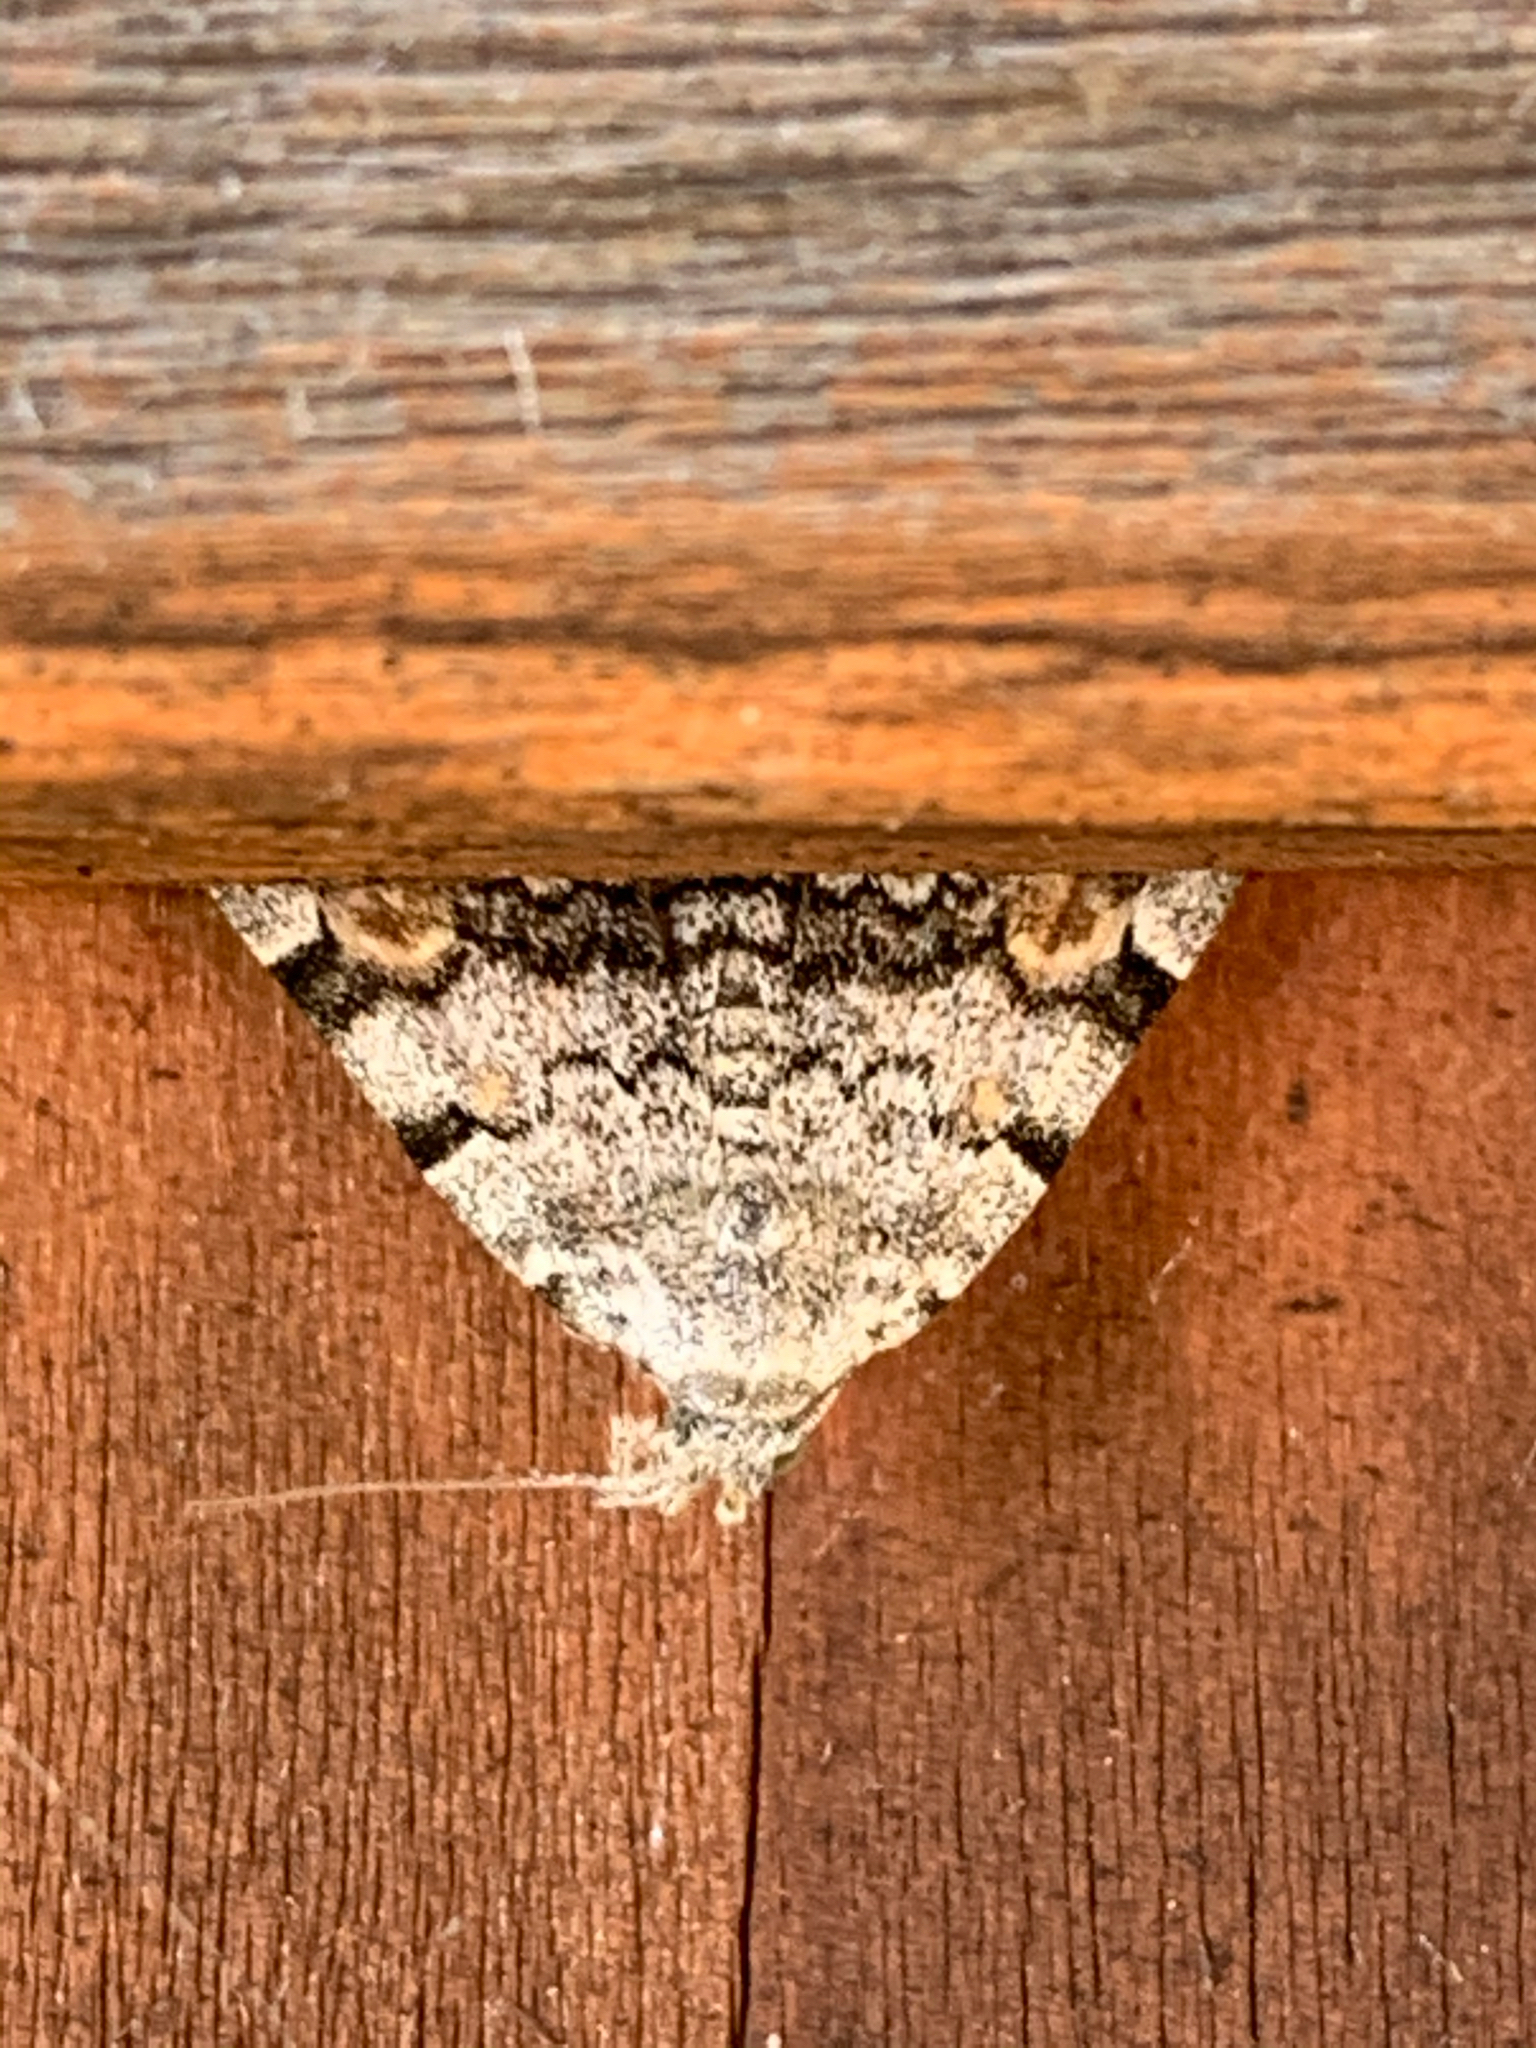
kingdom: Animalia
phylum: Arthropoda
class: Insecta
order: Lepidoptera
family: Erebidae
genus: Idia
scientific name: Idia americalis
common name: American idia moth
